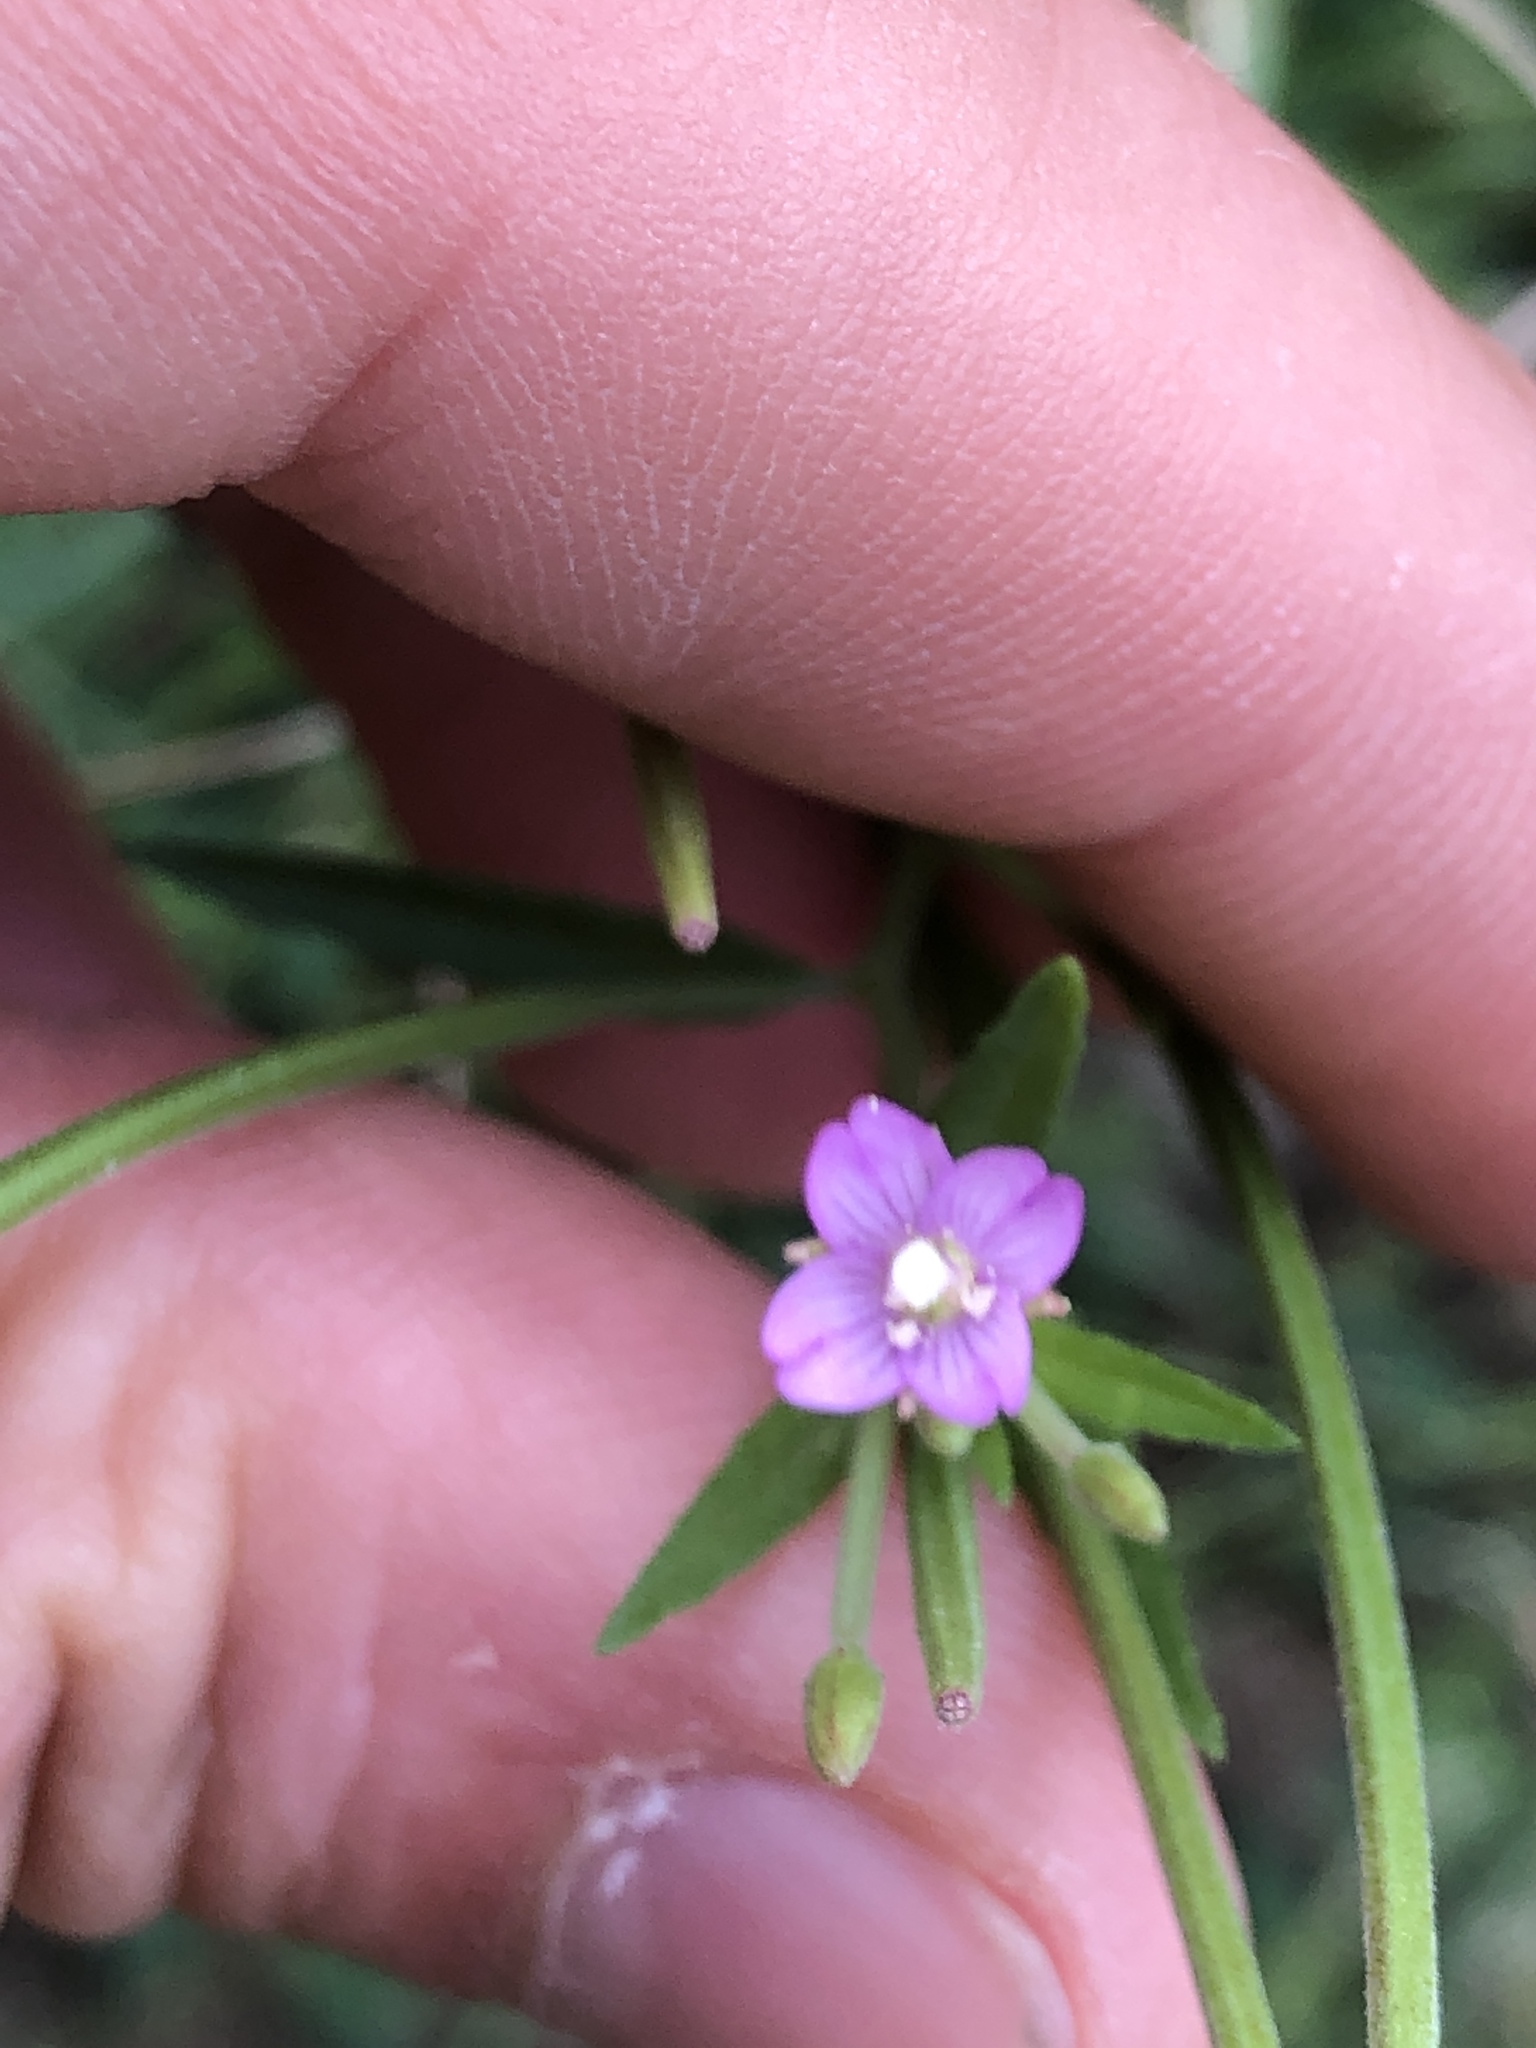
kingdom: Plantae
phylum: Tracheophyta
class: Magnoliopsida
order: Myrtales
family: Onagraceae
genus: Epilobium
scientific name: Epilobium parviflorum
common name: Hoary willowherb
